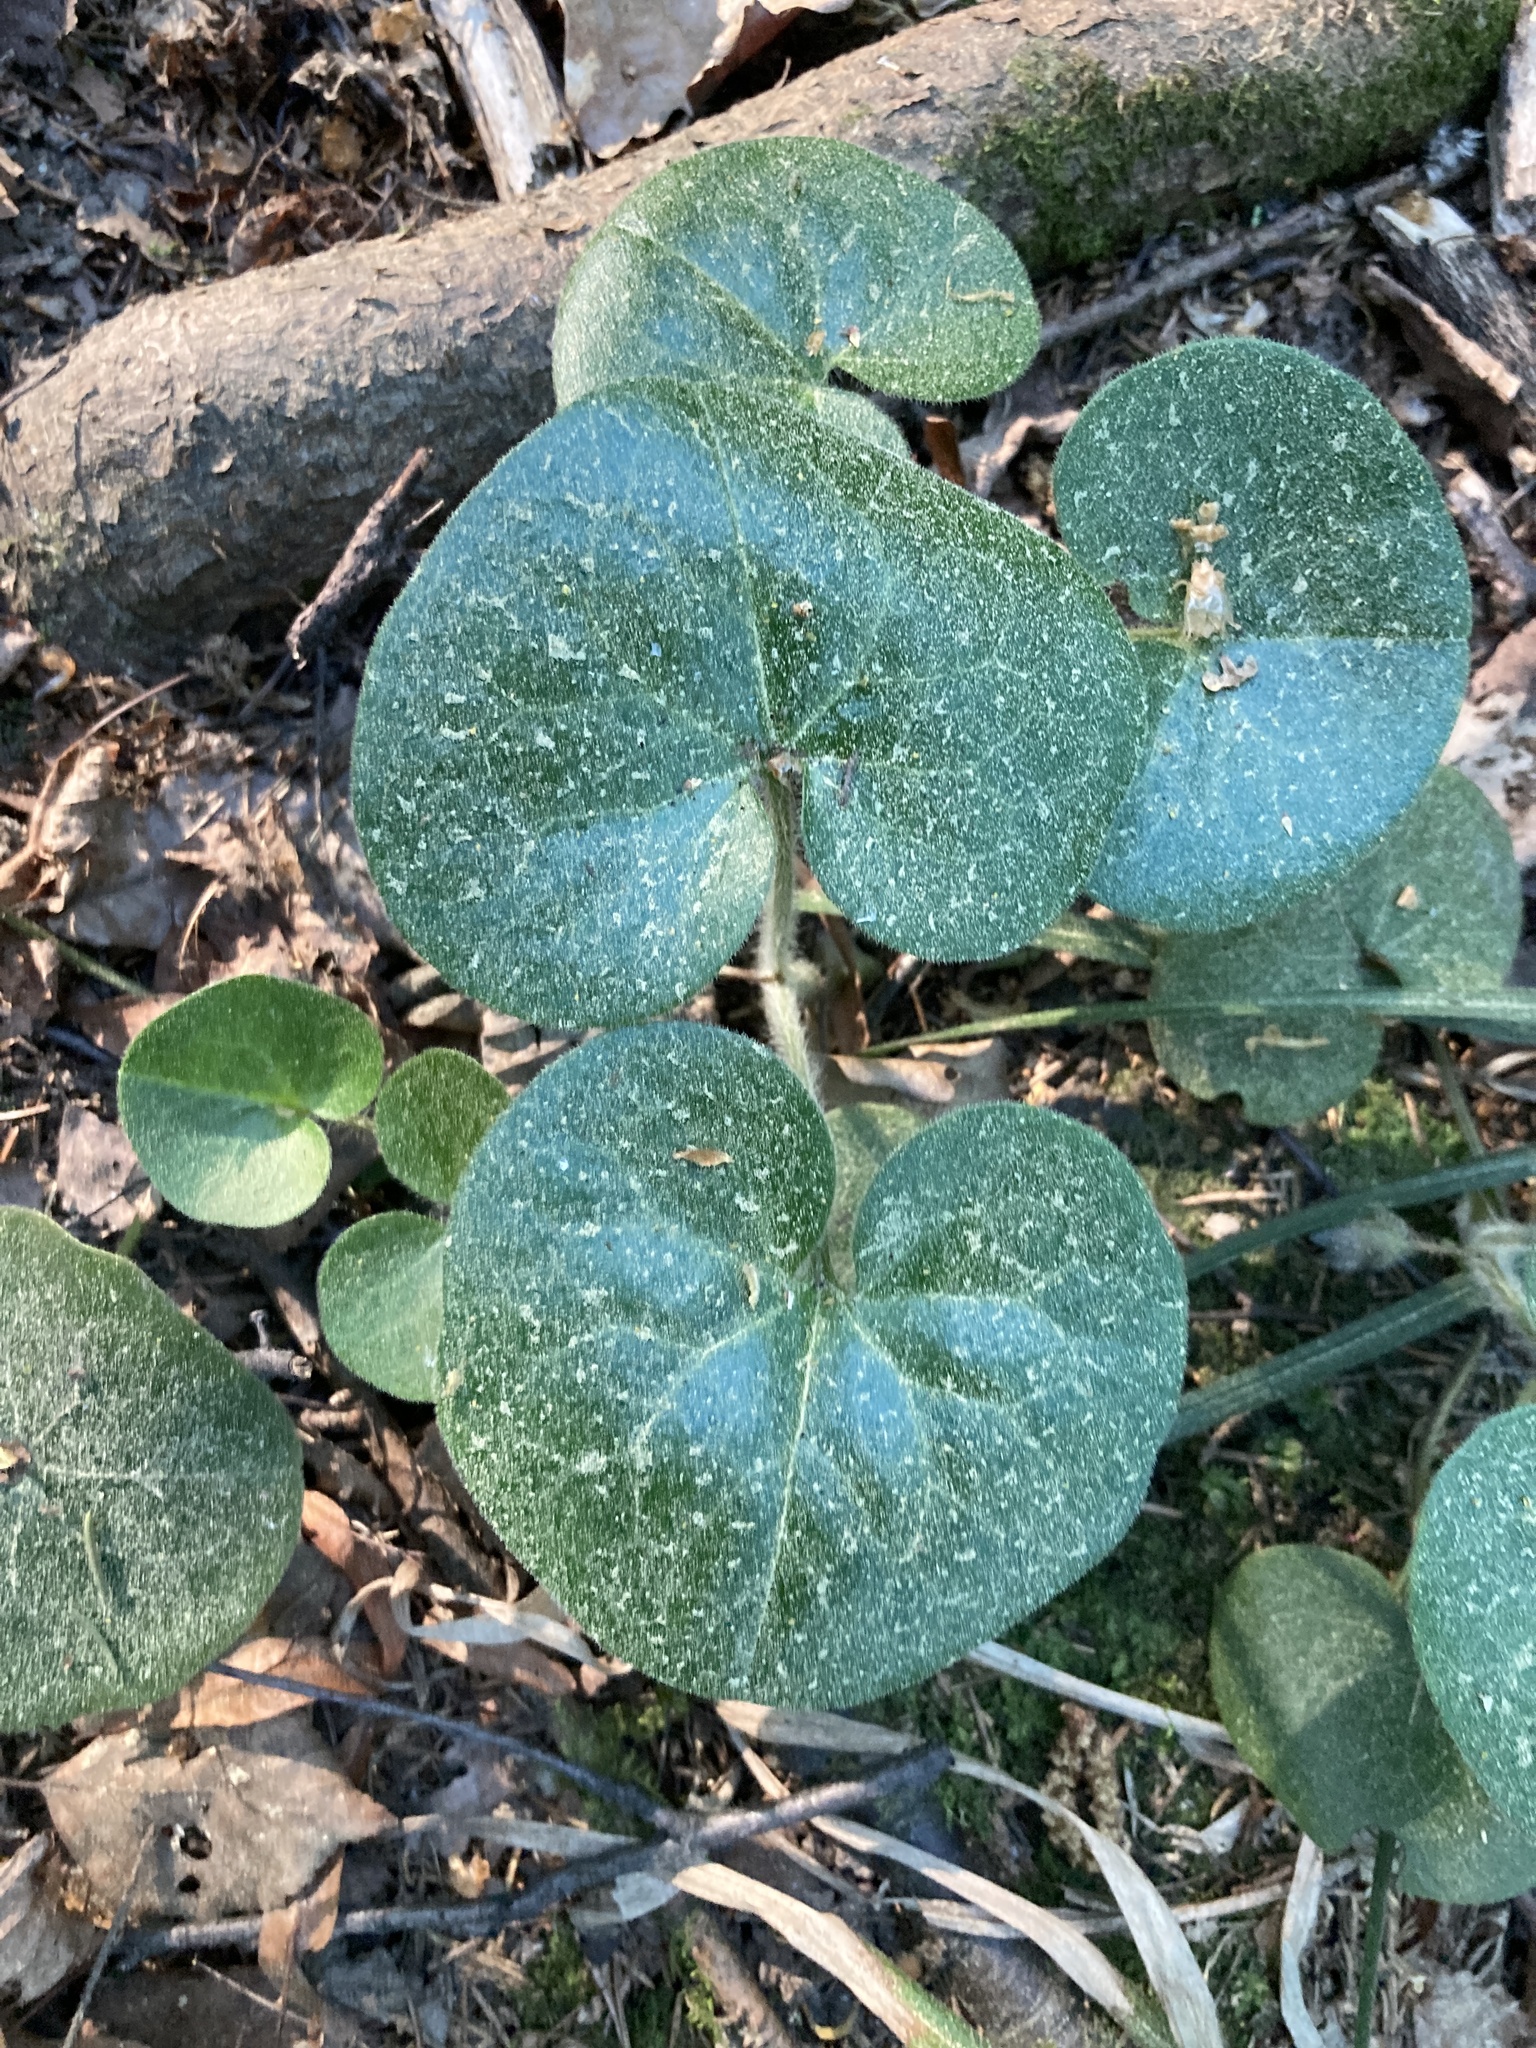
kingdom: Plantae
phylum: Tracheophyta
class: Magnoliopsida
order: Piperales
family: Aristolochiaceae
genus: Asarum
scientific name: Asarum europaeum
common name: Asarabacca
